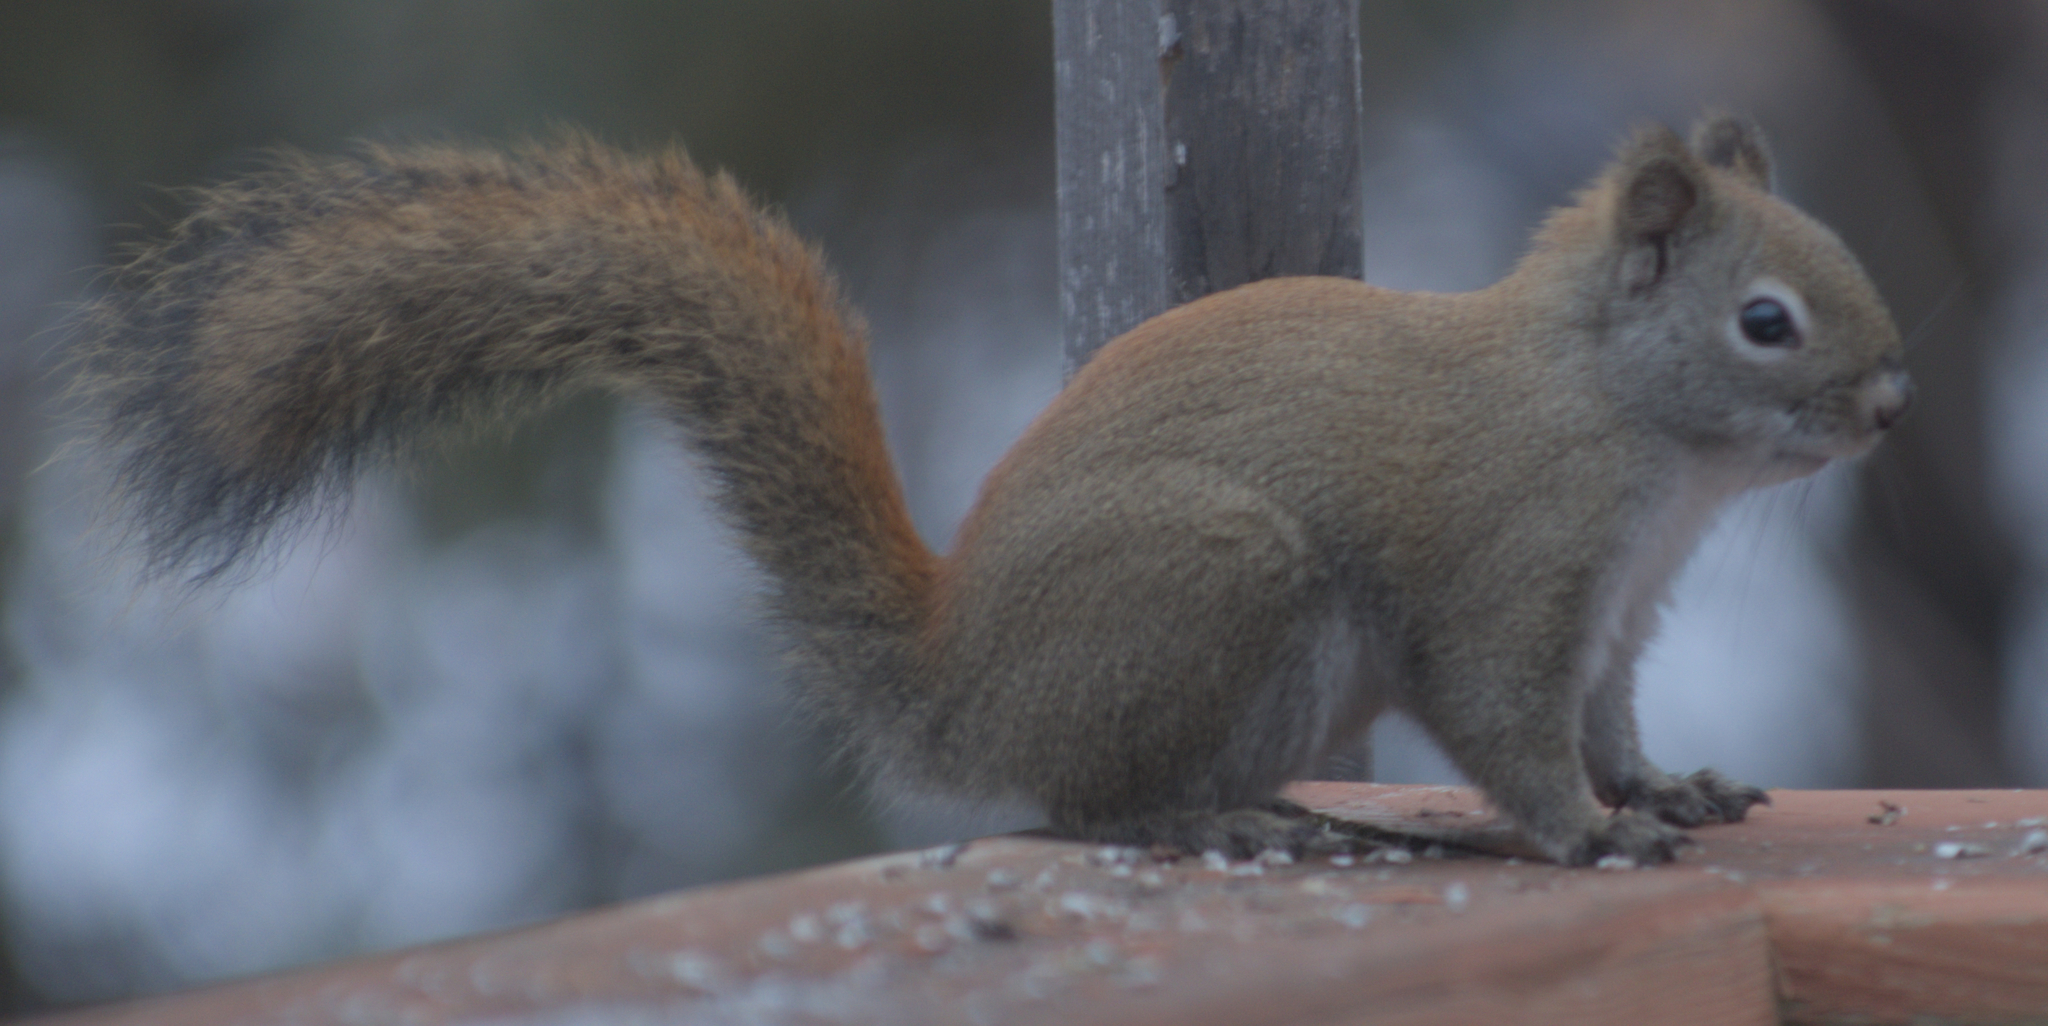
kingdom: Animalia
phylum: Chordata
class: Mammalia
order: Rodentia
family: Sciuridae
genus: Tamiasciurus
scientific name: Tamiasciurus hudsonicus
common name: Red squirrel
